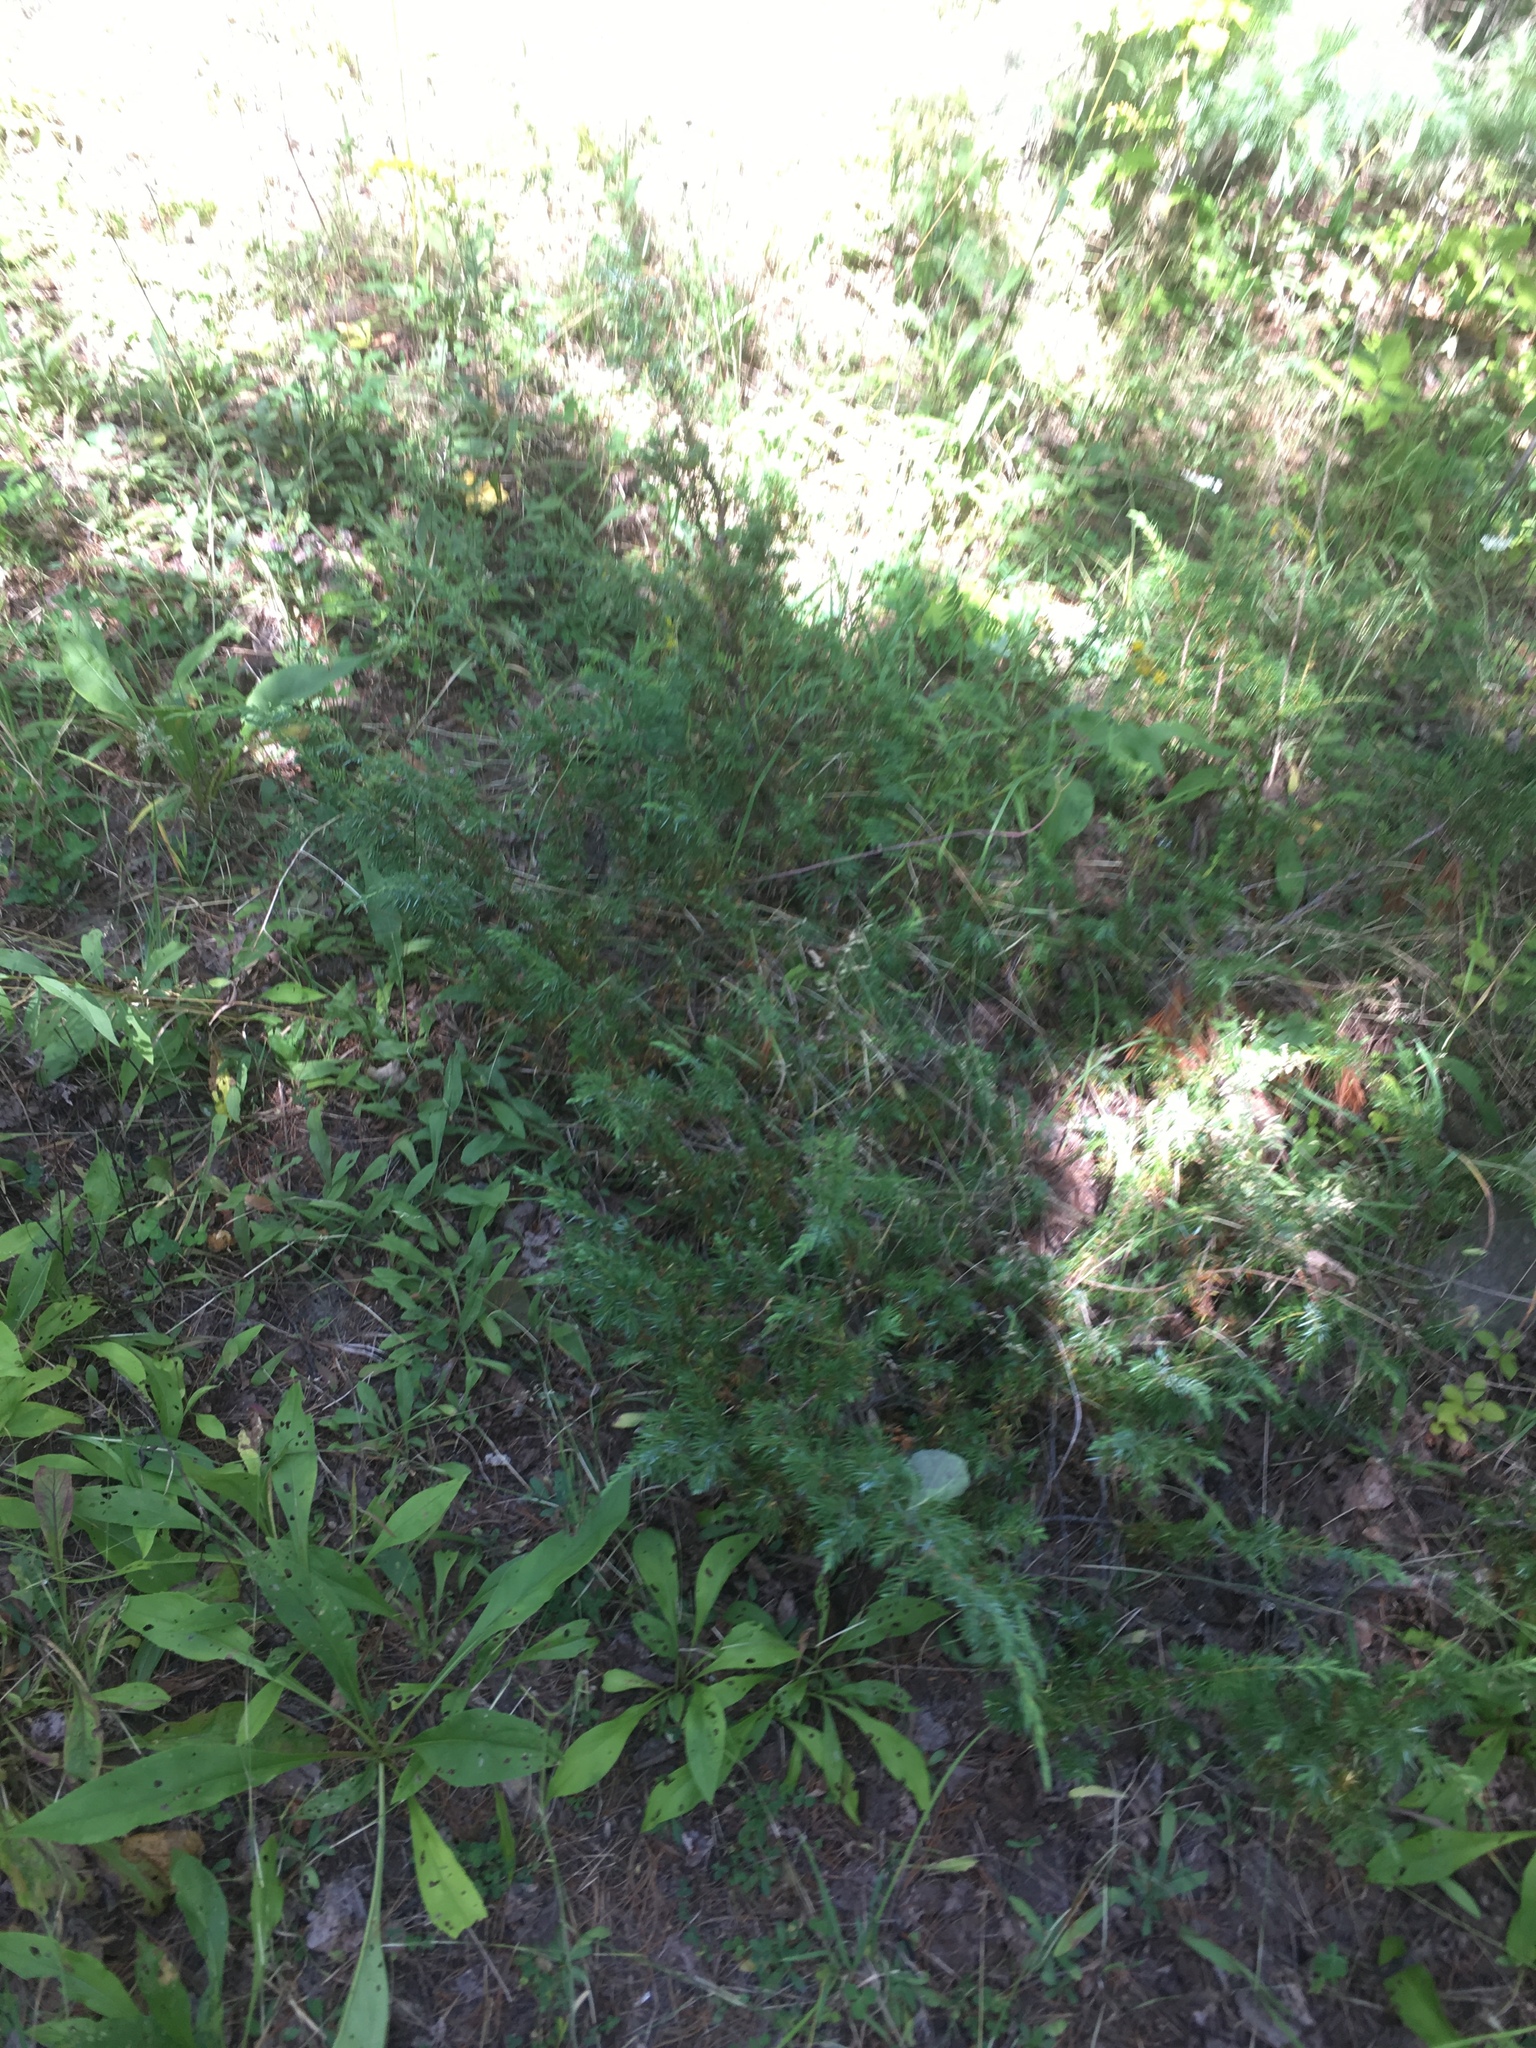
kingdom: Plantae
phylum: Tracheophyta
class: Pinopsida
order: Pinales
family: Cupressaceae
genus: Juniperus
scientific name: Juniperus communis
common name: Common juniper
